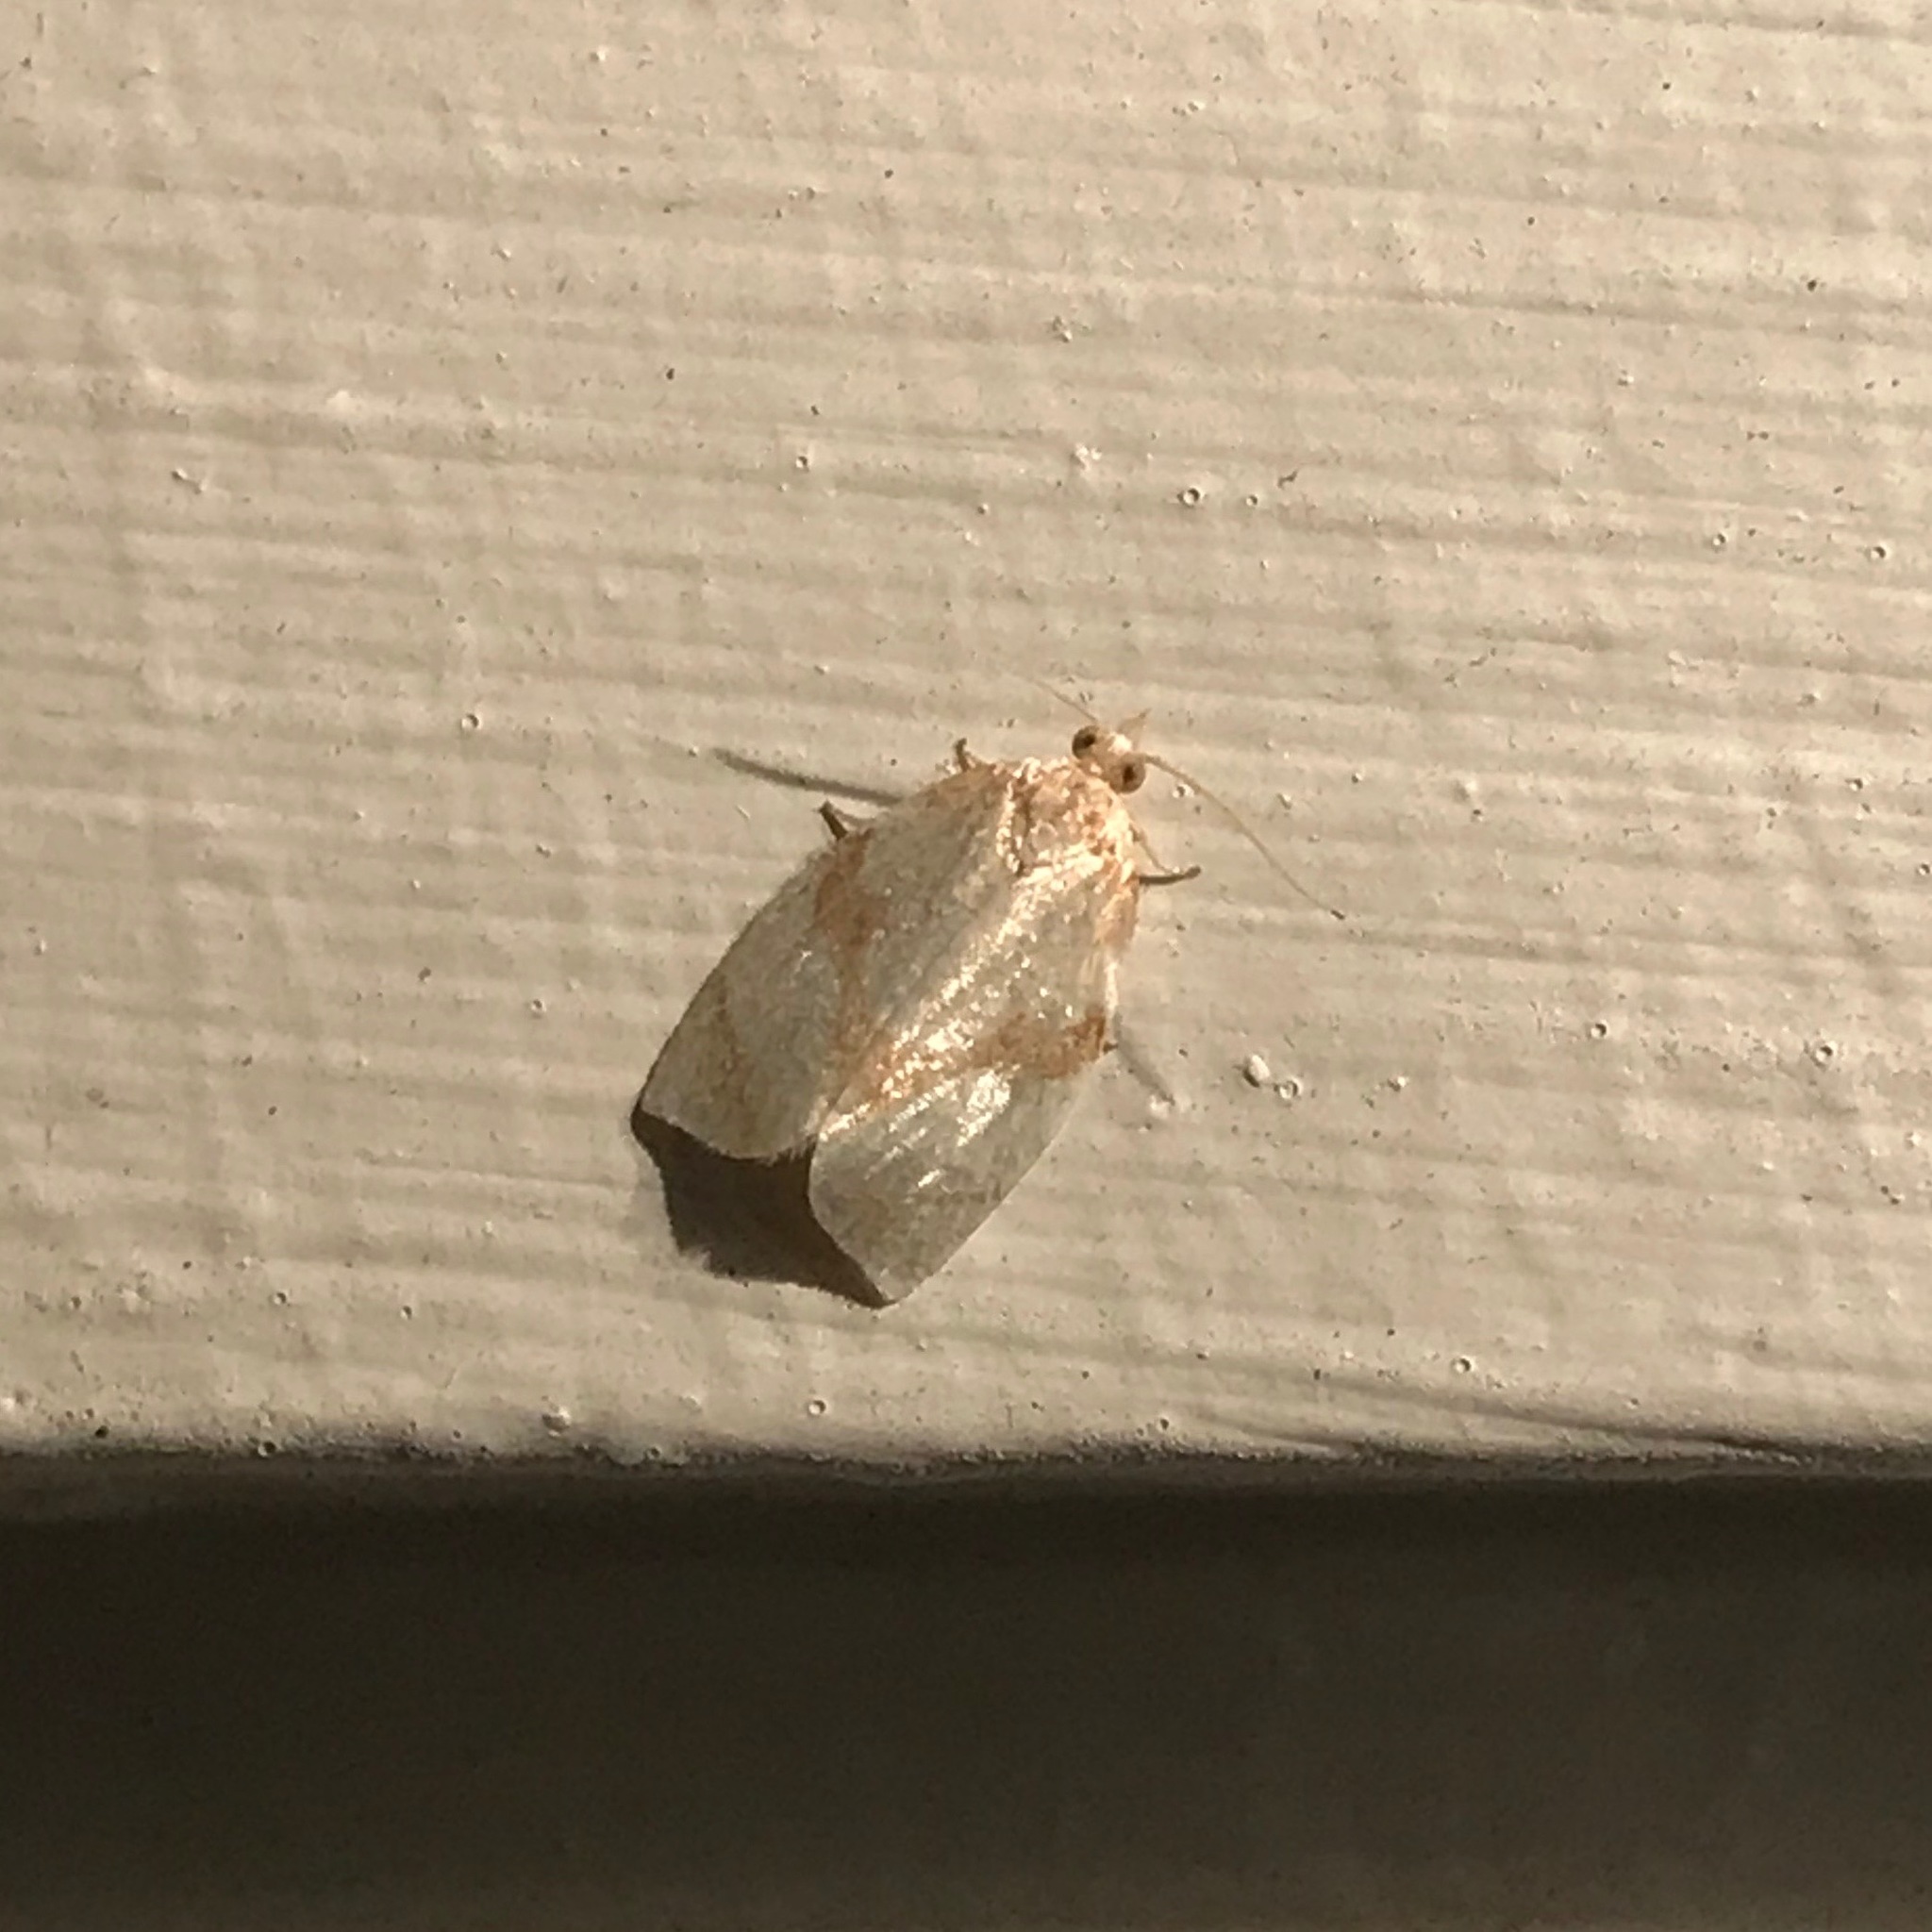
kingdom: Animalia
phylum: Arthropoda
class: Insecta
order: Lepidoptera
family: Tortricidae
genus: Adoxophyes
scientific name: Adoxophyes negundana
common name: Shimmering gold adoxophyes moth
